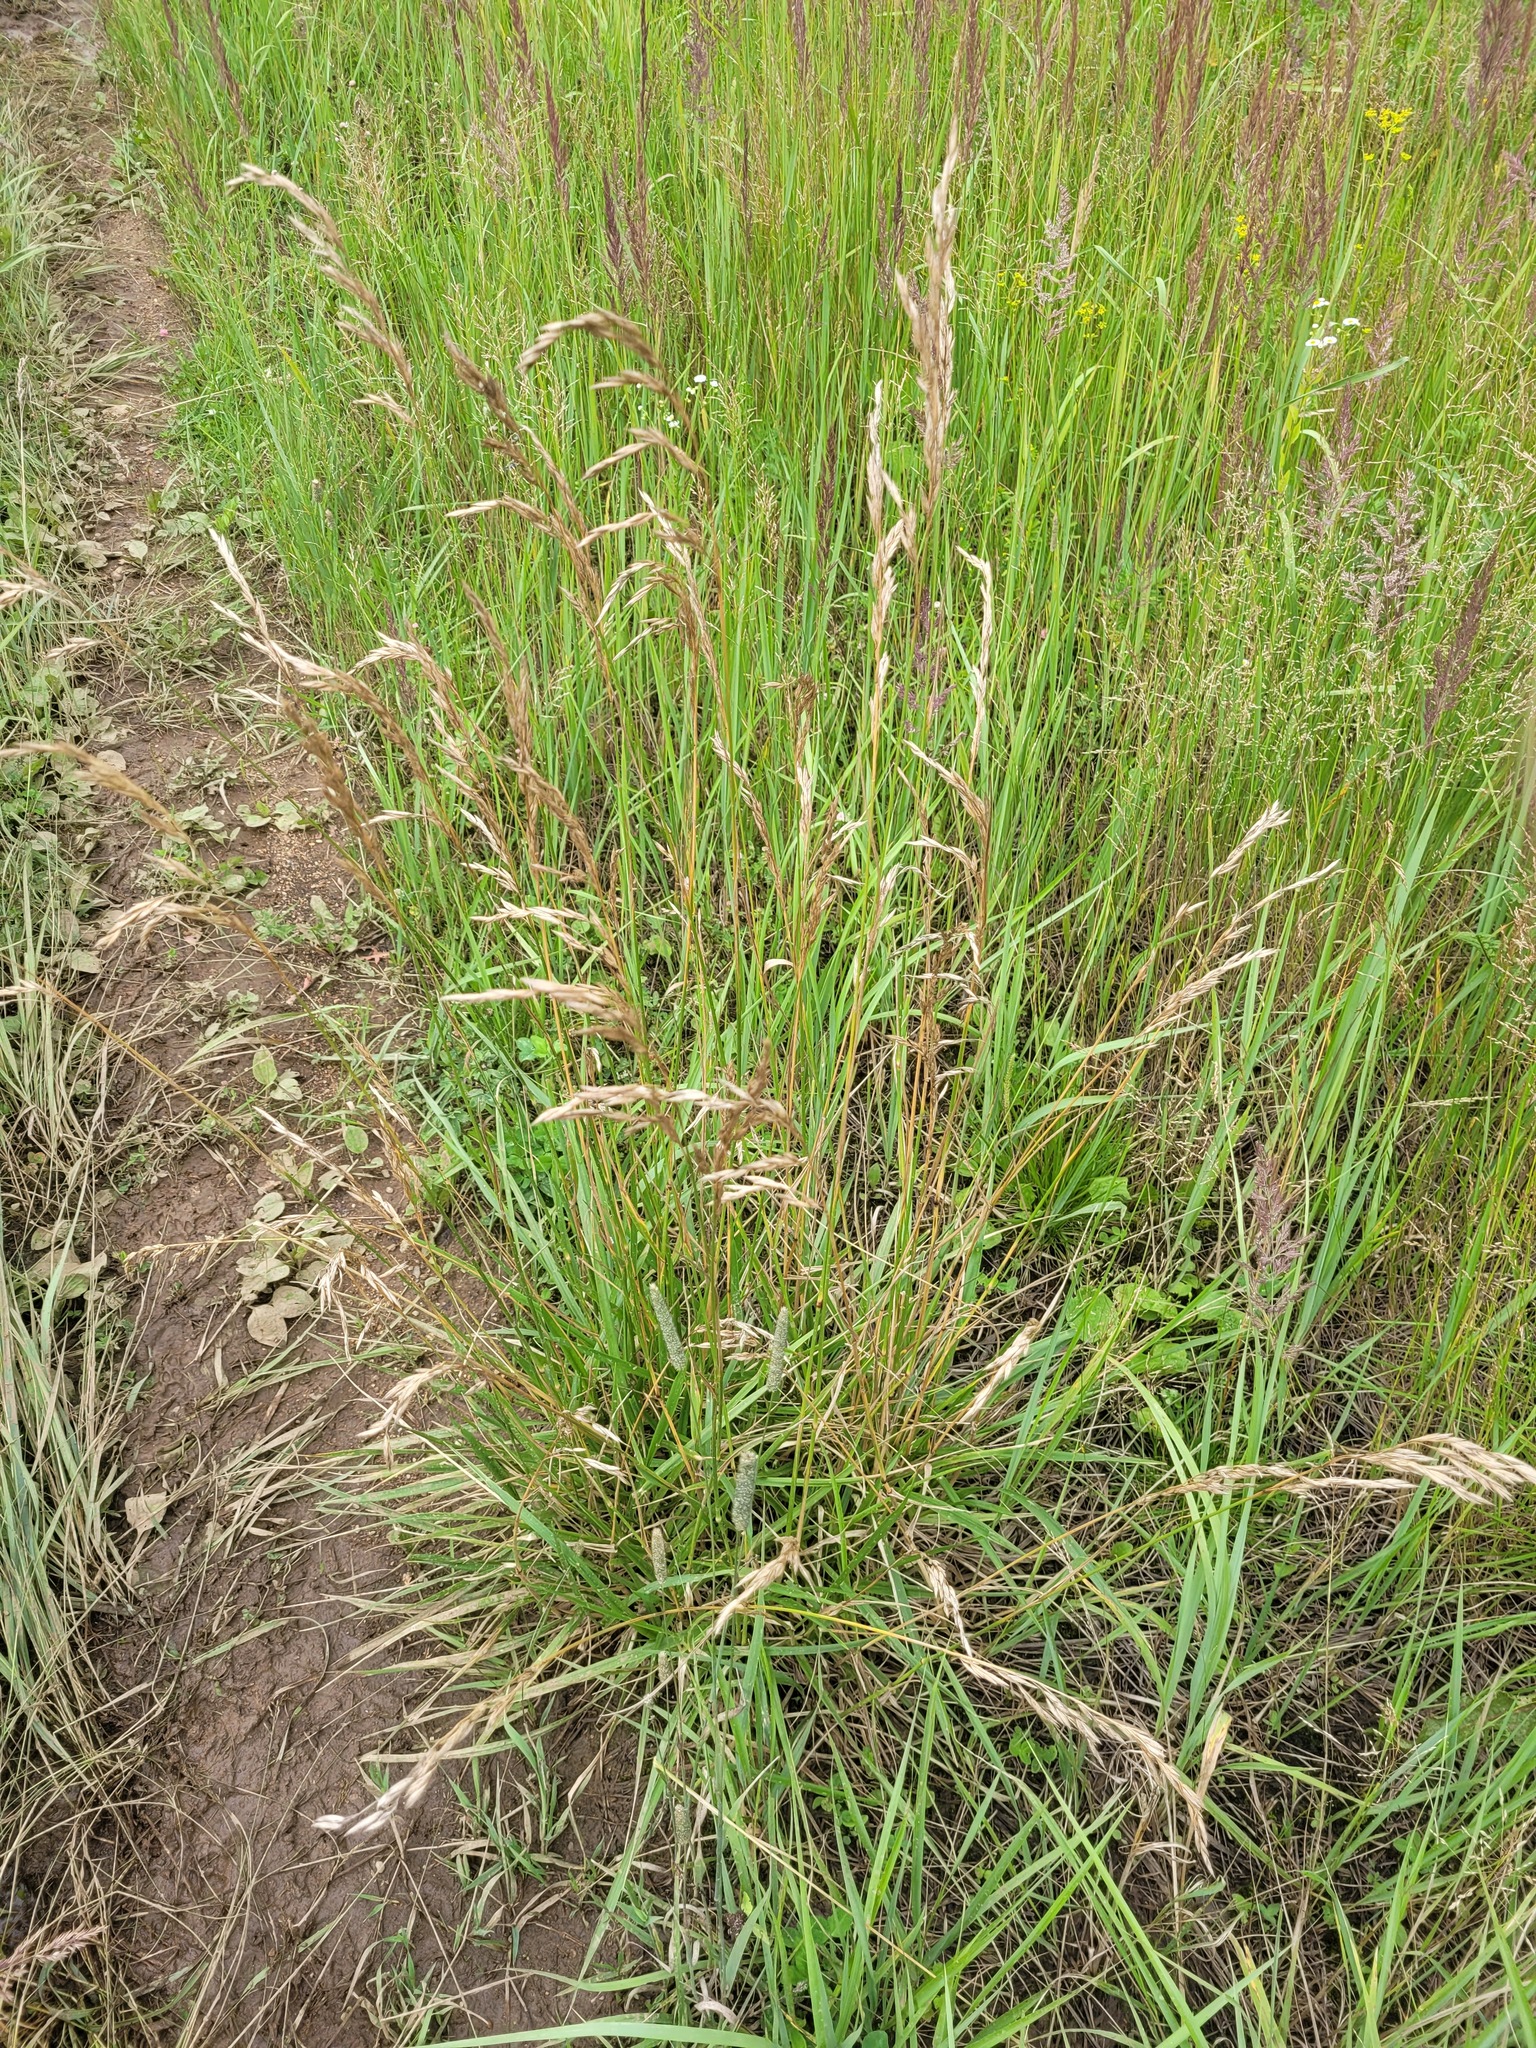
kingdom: Plantae
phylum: Tracheophyta
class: Liliopsida
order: Poales
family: Poaceae
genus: Lolium
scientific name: Lolium arundinaceum
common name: Reed fescue
